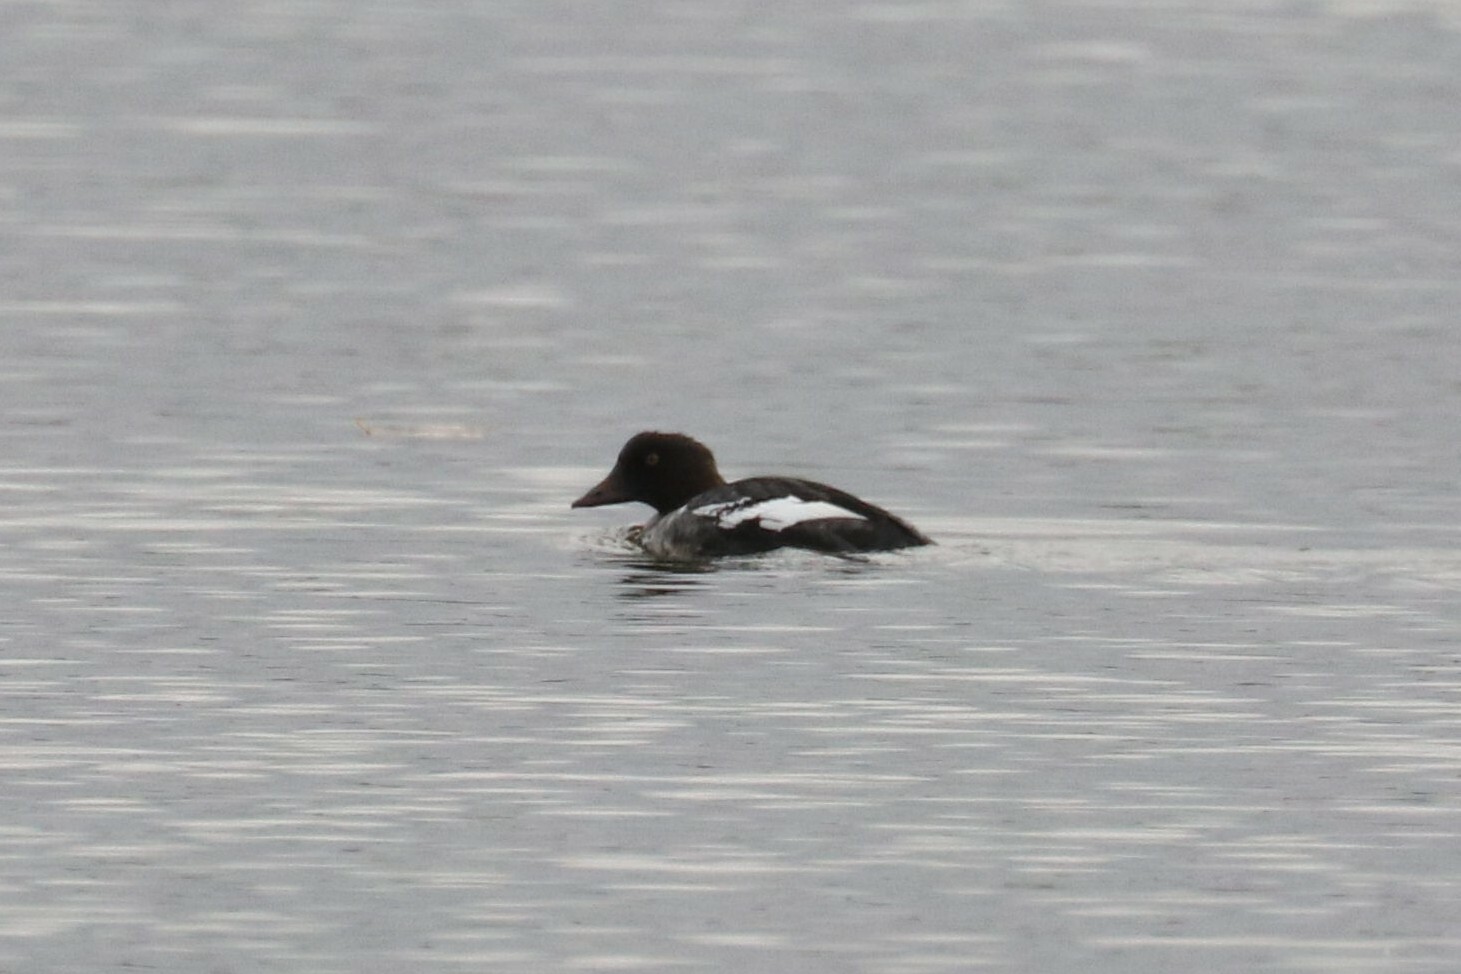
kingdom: Animalia
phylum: Chordata
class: Aves
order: Anseriformes
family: Anatidae
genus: Bucephala
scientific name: Bucephala clangula
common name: Common goldeneye
